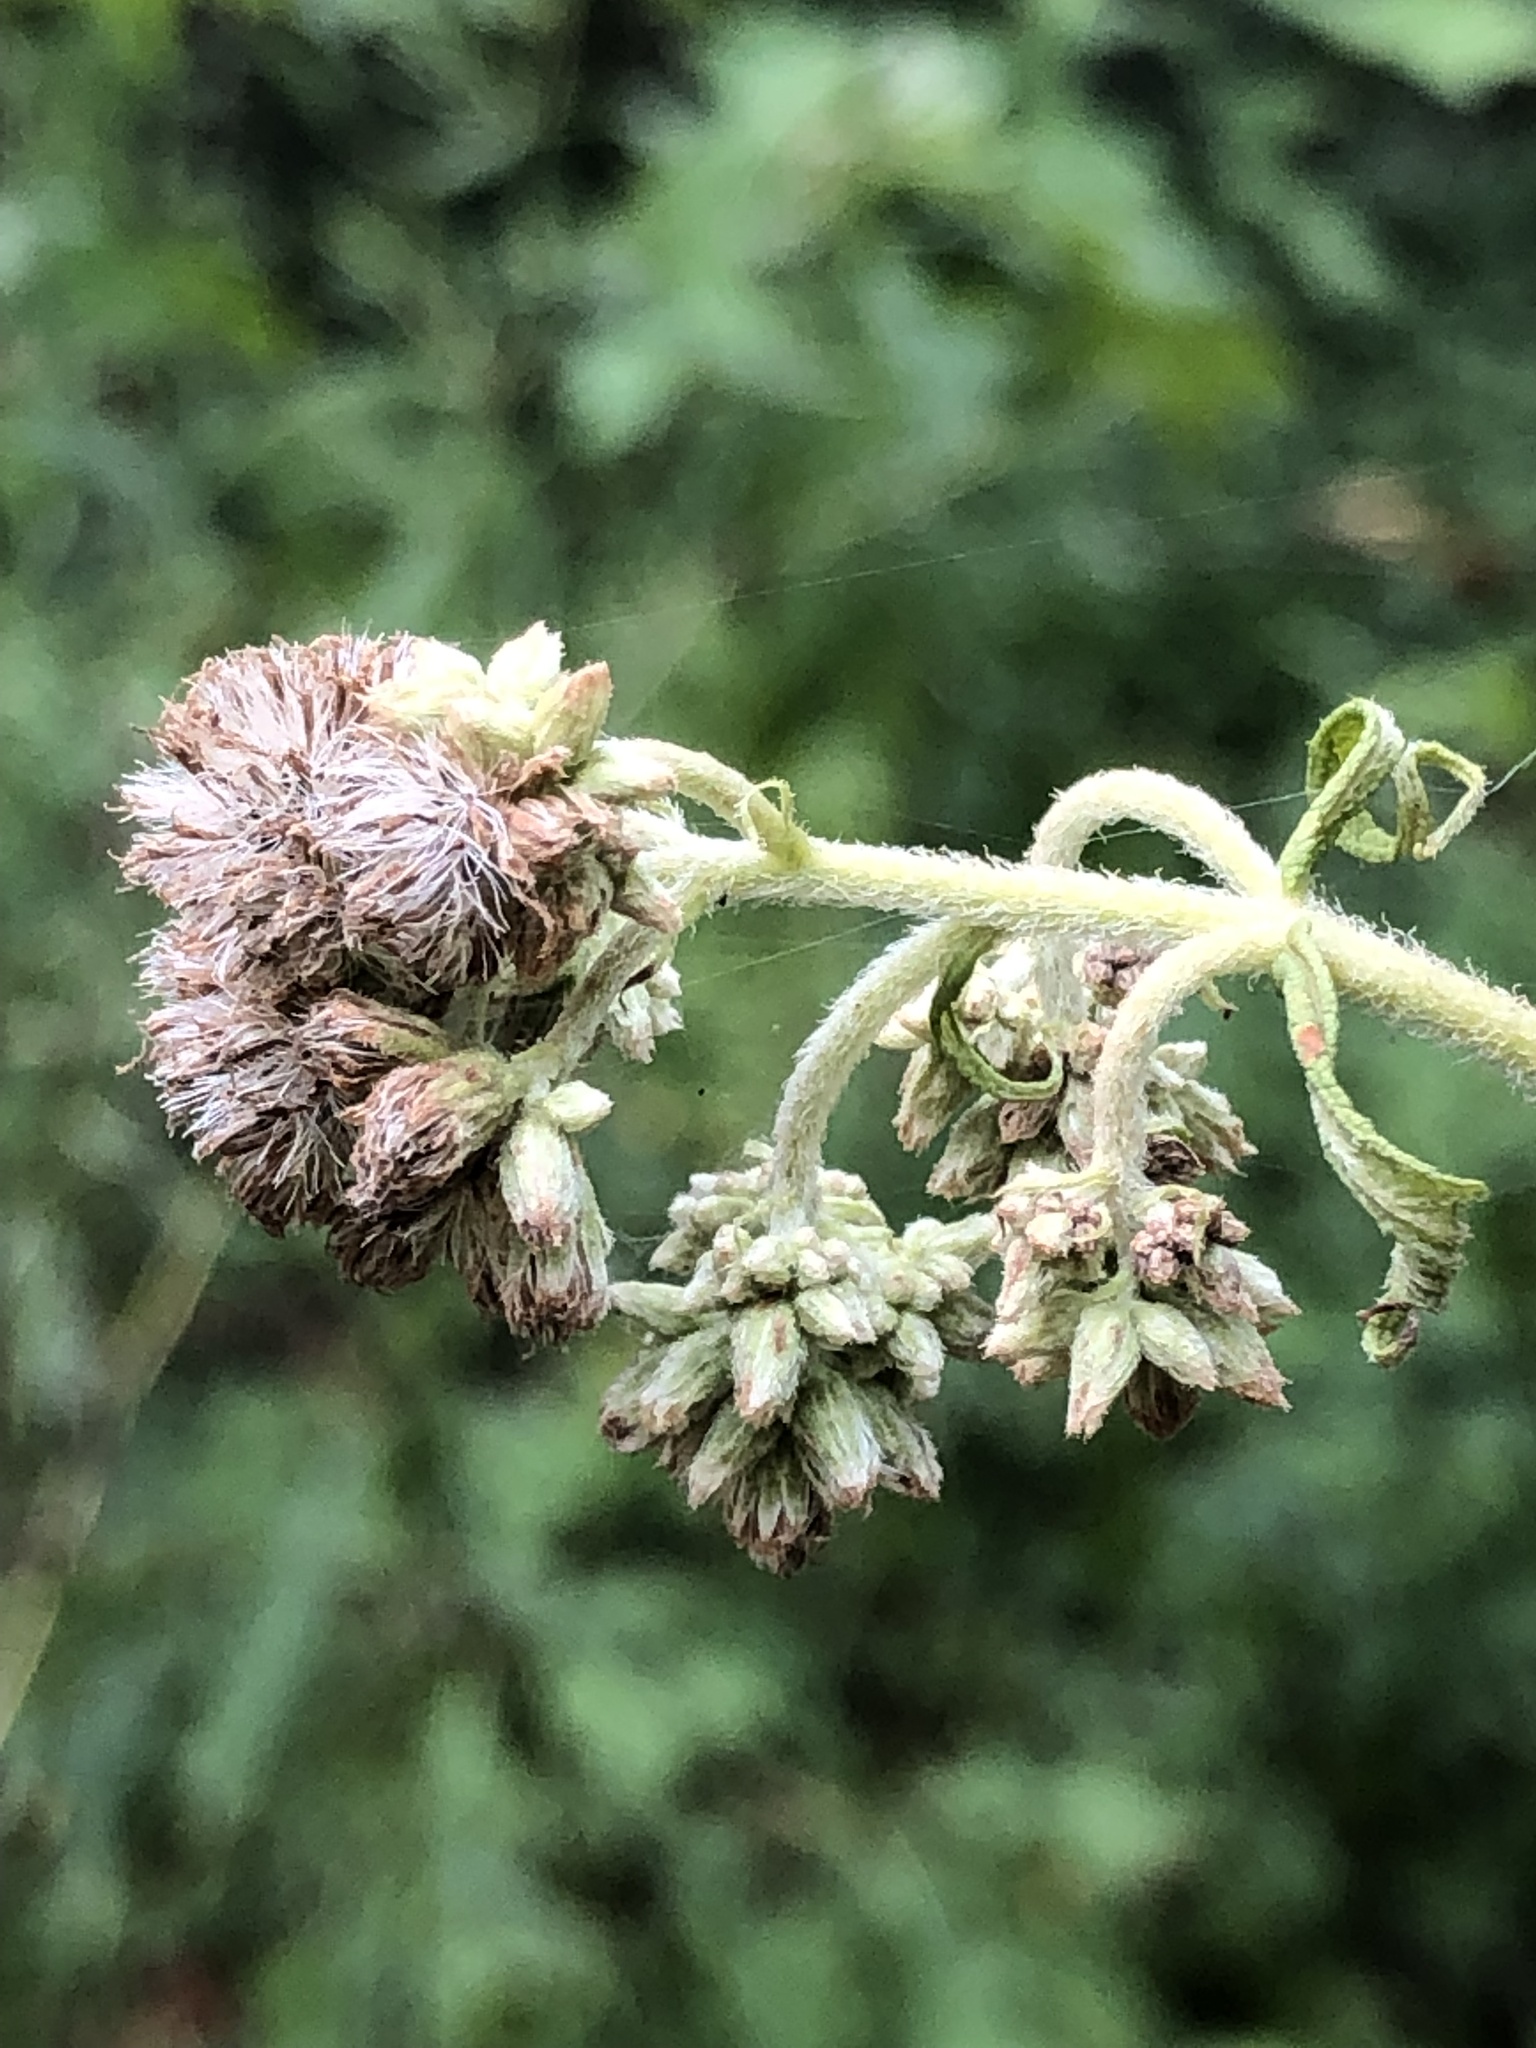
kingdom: Plantae
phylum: Tracheophyta
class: Magnoliopsida
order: Asterales
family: Asteraceae
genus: Eupatorium
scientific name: Eupatorium perfoliatum
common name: Boneset
